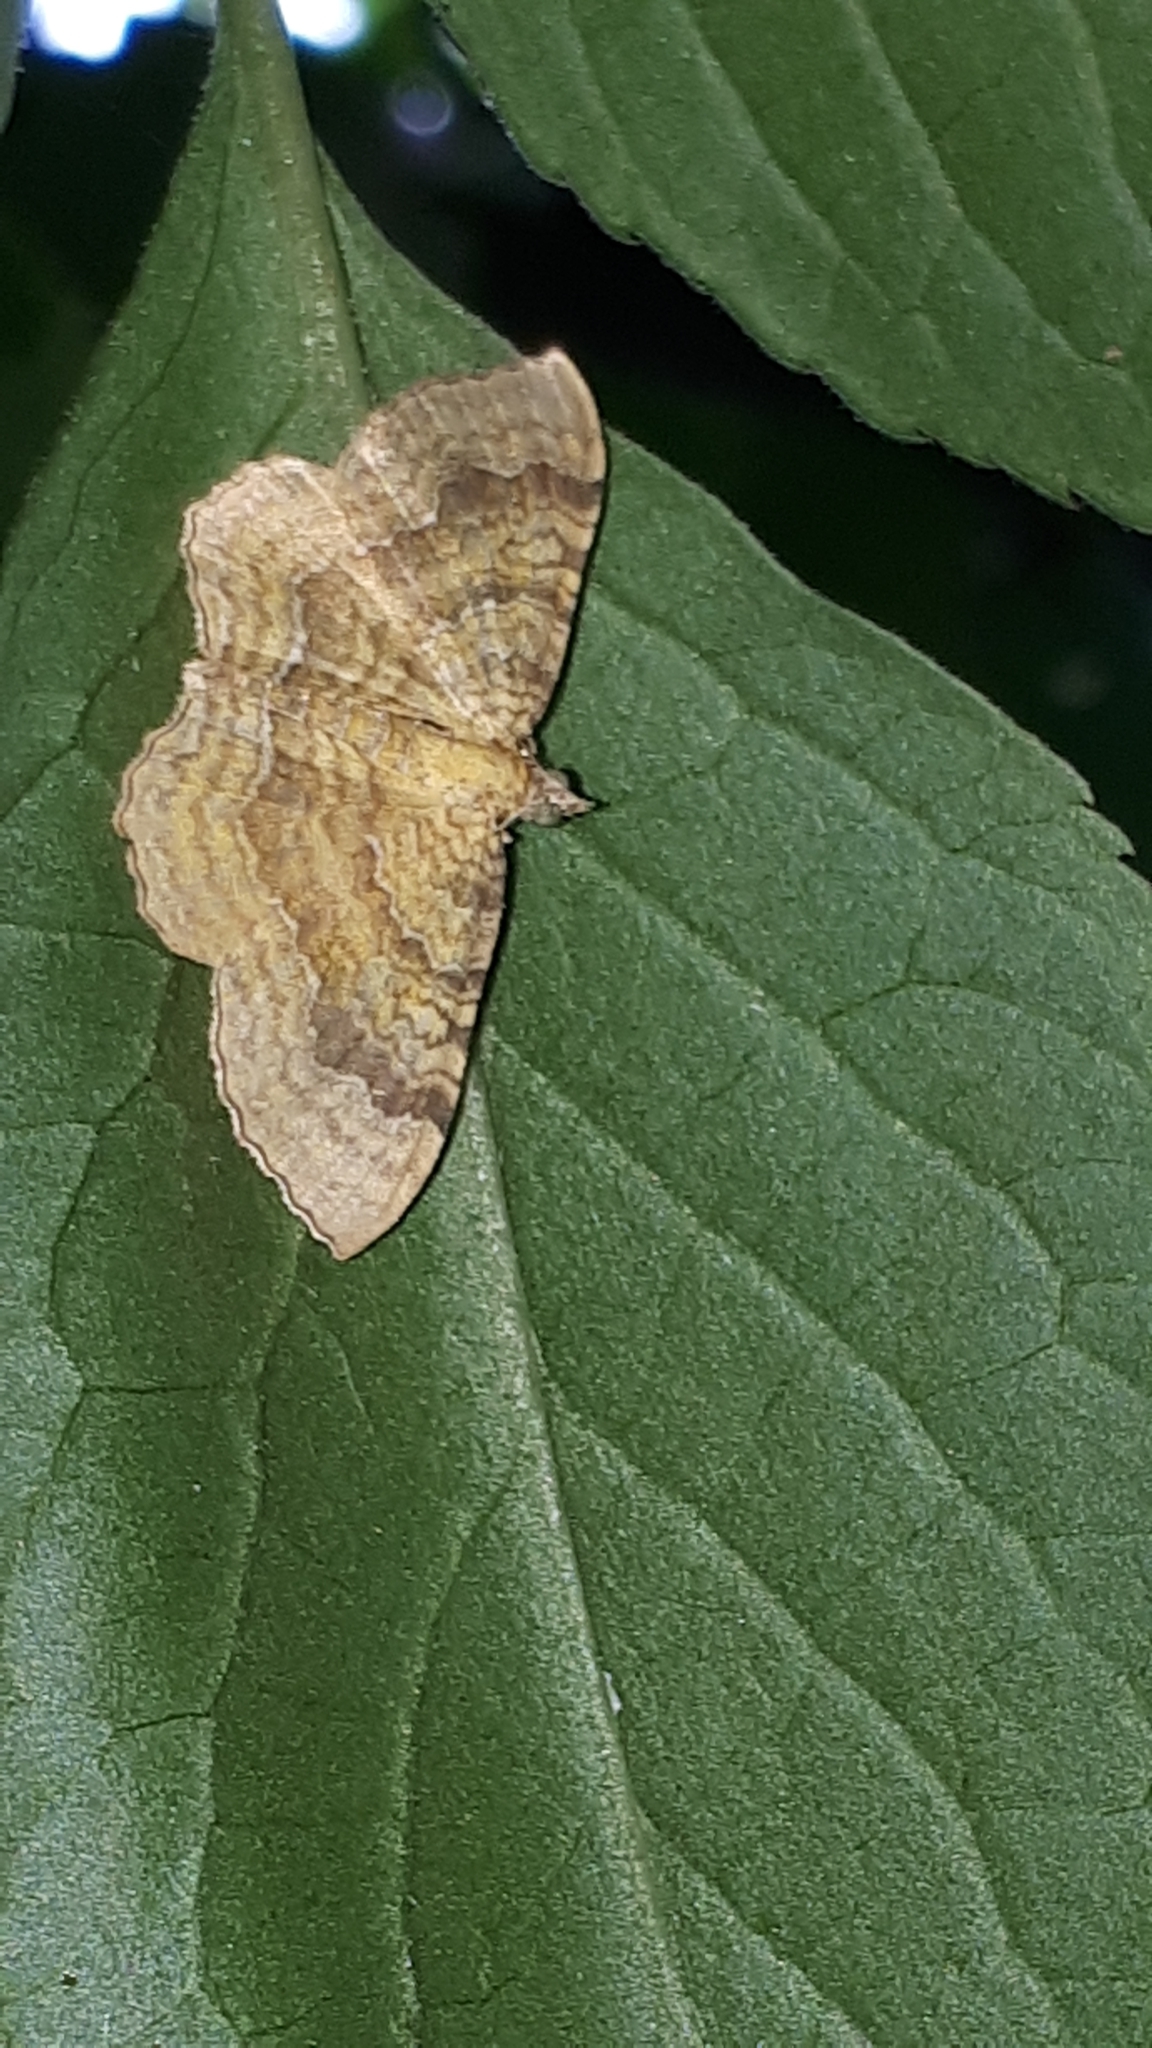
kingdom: Animalia
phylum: Arthropoda
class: Insecta
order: Lepidoptera
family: Geometridae
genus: Camptogramma
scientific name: Camptogramma bilineata
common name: Yellow shell
